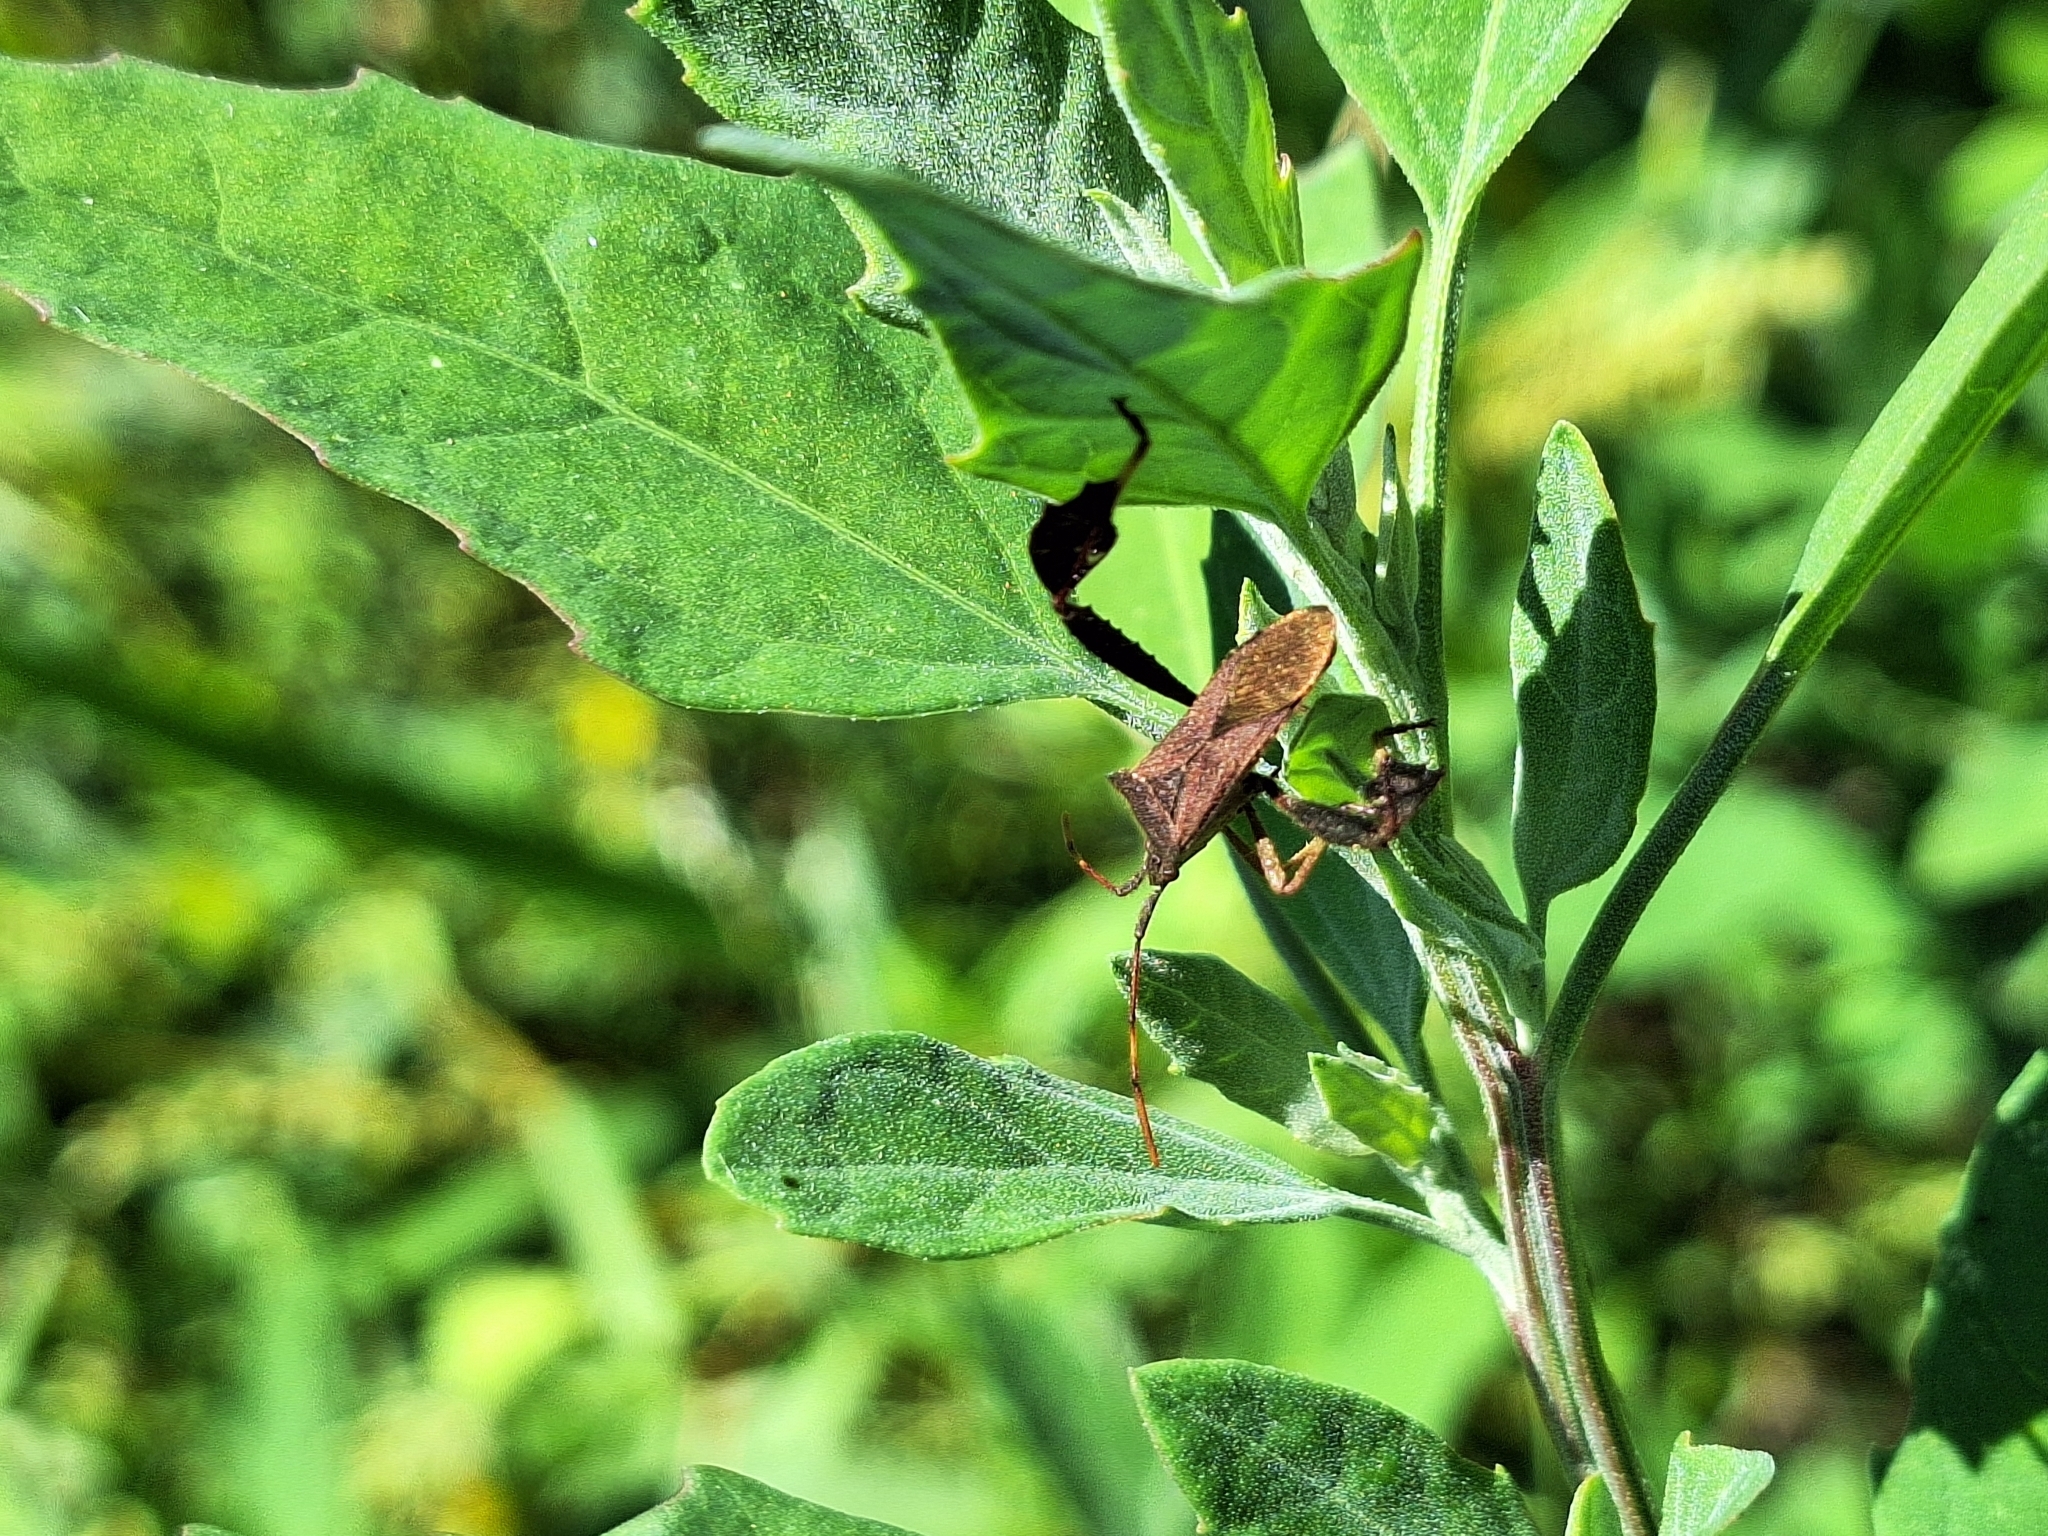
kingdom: Animalia
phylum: Arthropoda
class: Insecta
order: Hemiptera
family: Coreidae
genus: Leptoglossus
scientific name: Leptoglossus concaviusculus
